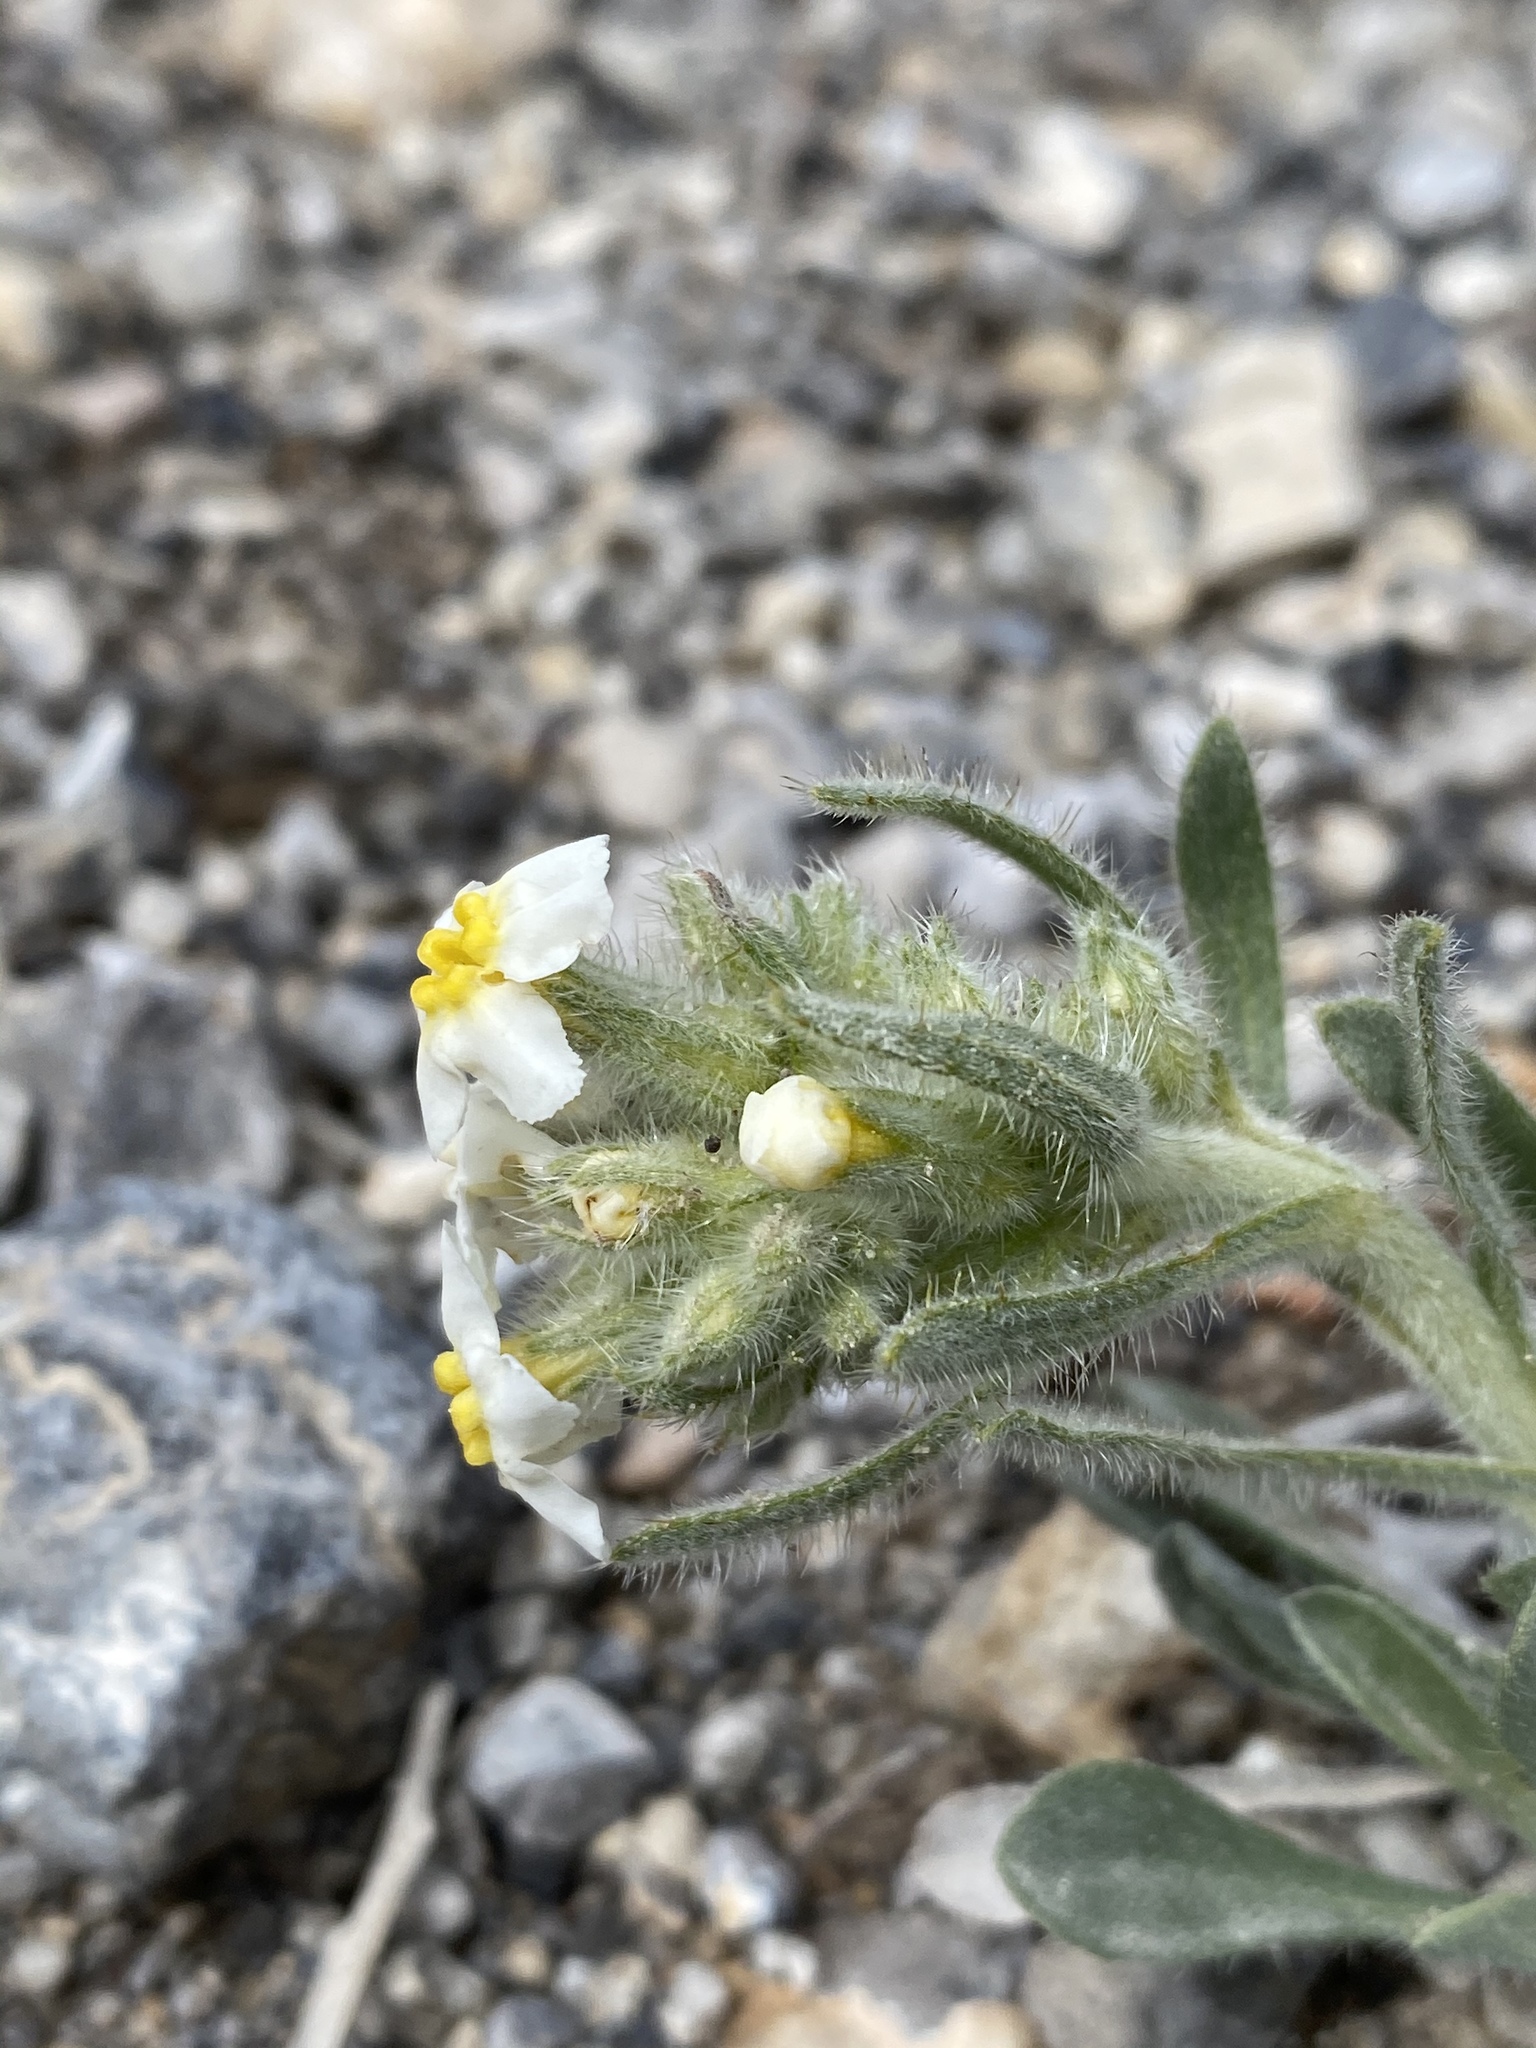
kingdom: Plantae
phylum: Tracheophyta
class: Magnoliopsida
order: Boraginales
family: Boraginaceae
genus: Oreocarya
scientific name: Oreocarya flavoculata
